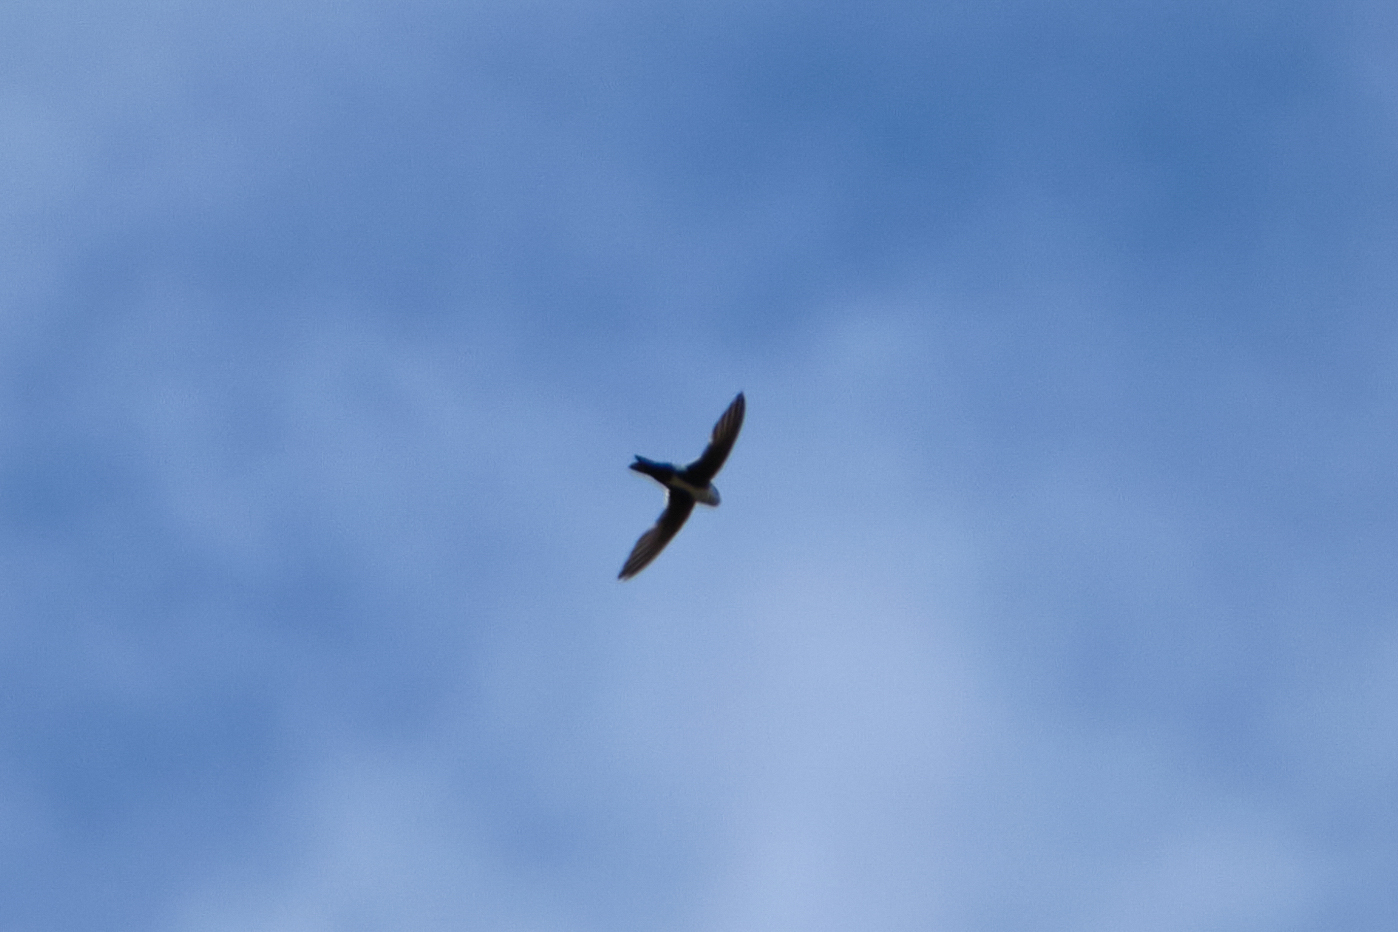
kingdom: Animalia
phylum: Chordata
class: Aves
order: Apodiformes
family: Apodidae
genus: Aeronautes
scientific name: Aeronautes saxatalis
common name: White-throated swift
